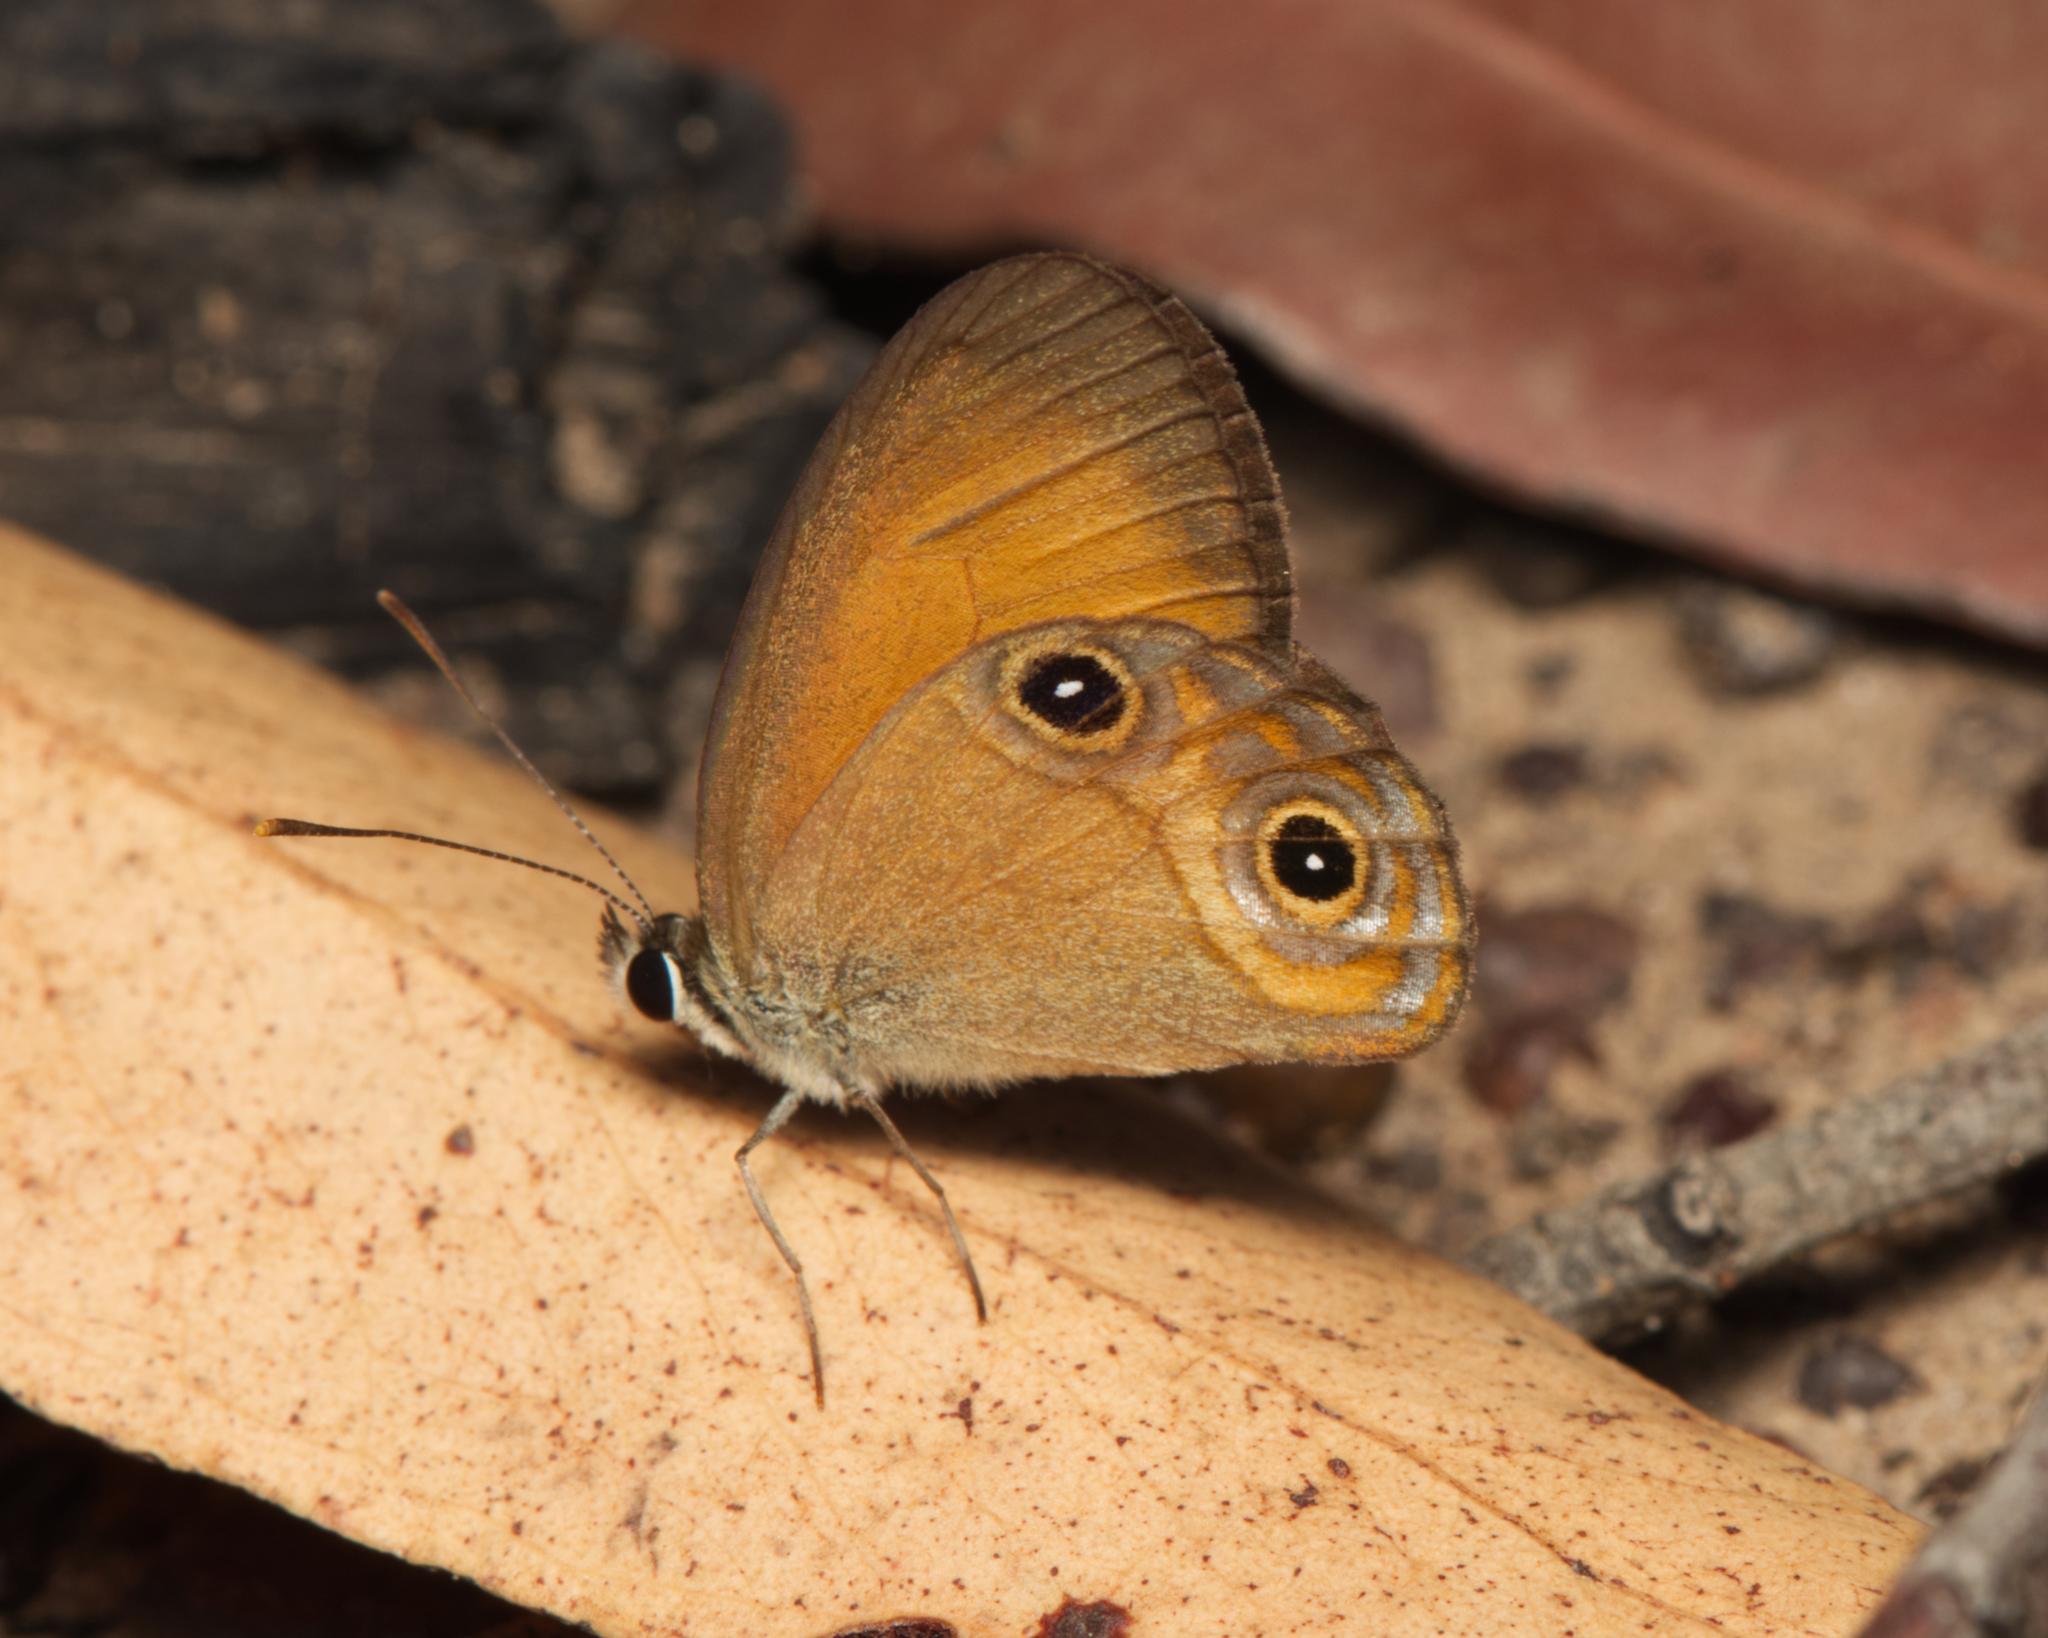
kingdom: Animalia
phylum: Arthropoda
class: Insecta
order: Lepidoptera
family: Nymphalidae
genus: Hypocysta
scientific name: Hypocysta adiante
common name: Orange ringlet
